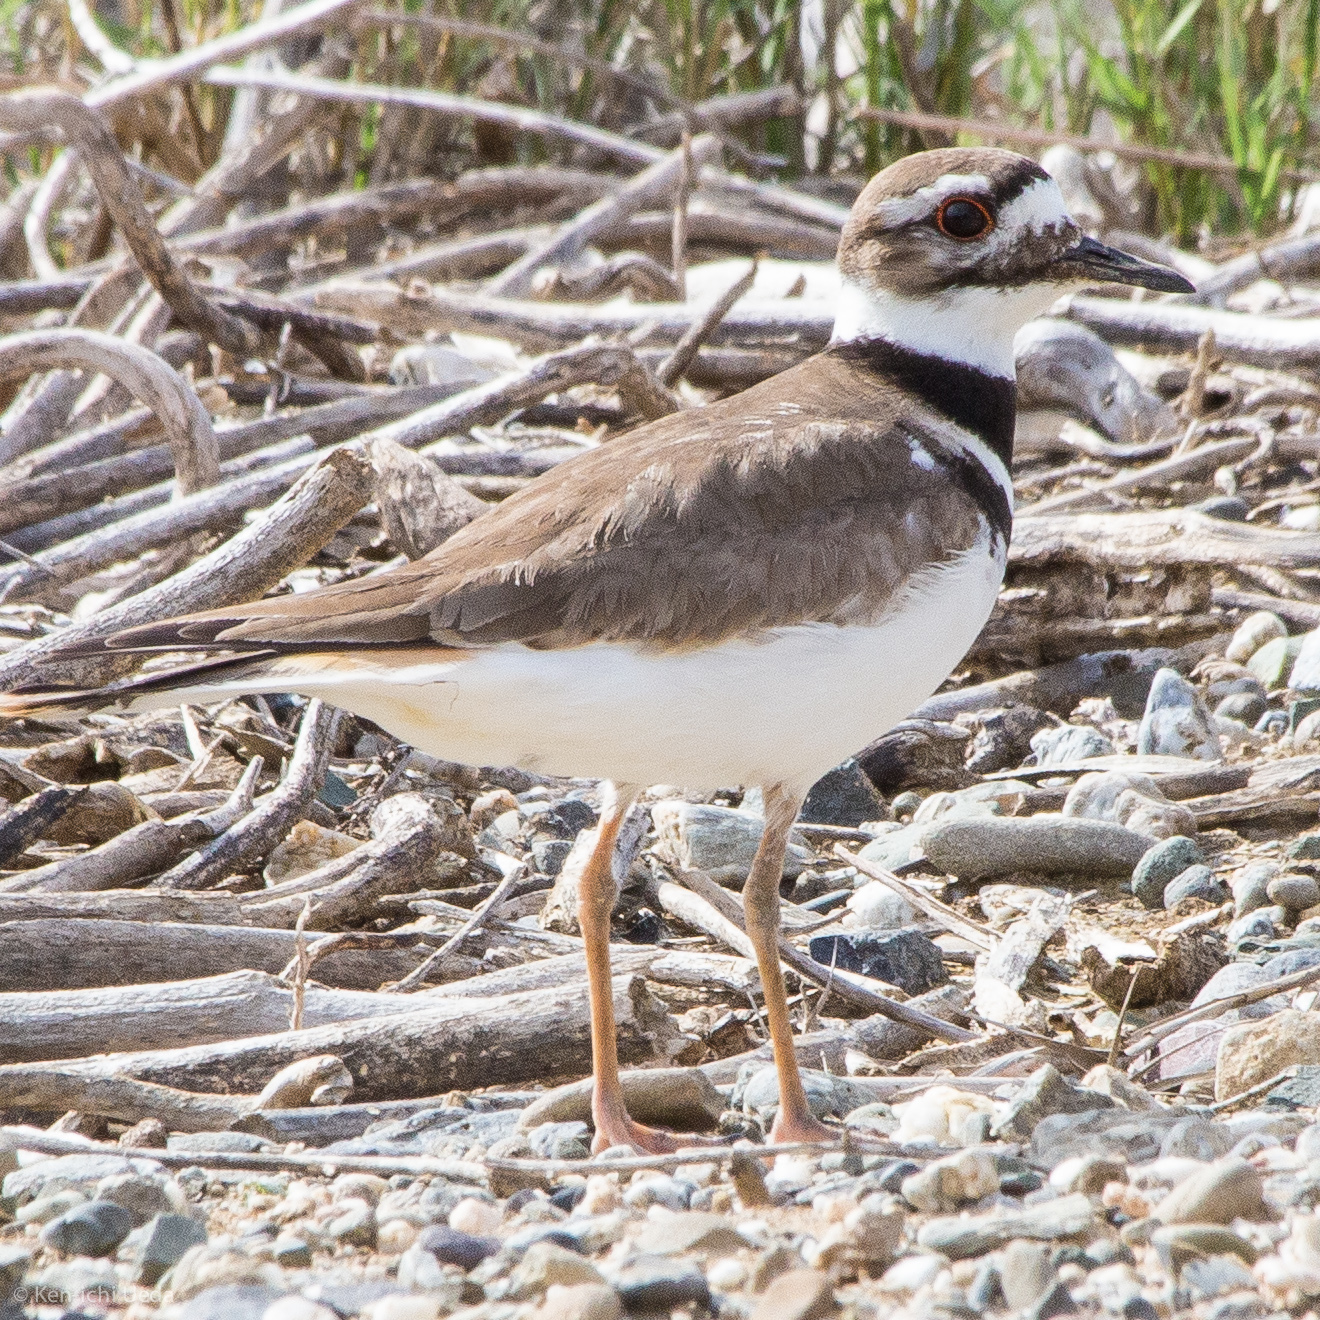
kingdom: Animalia
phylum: Chordata
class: Aves
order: Charadriiformes
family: Charadriidae
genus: Charadrius
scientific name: Charadrius vociferus
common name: Killdeer
